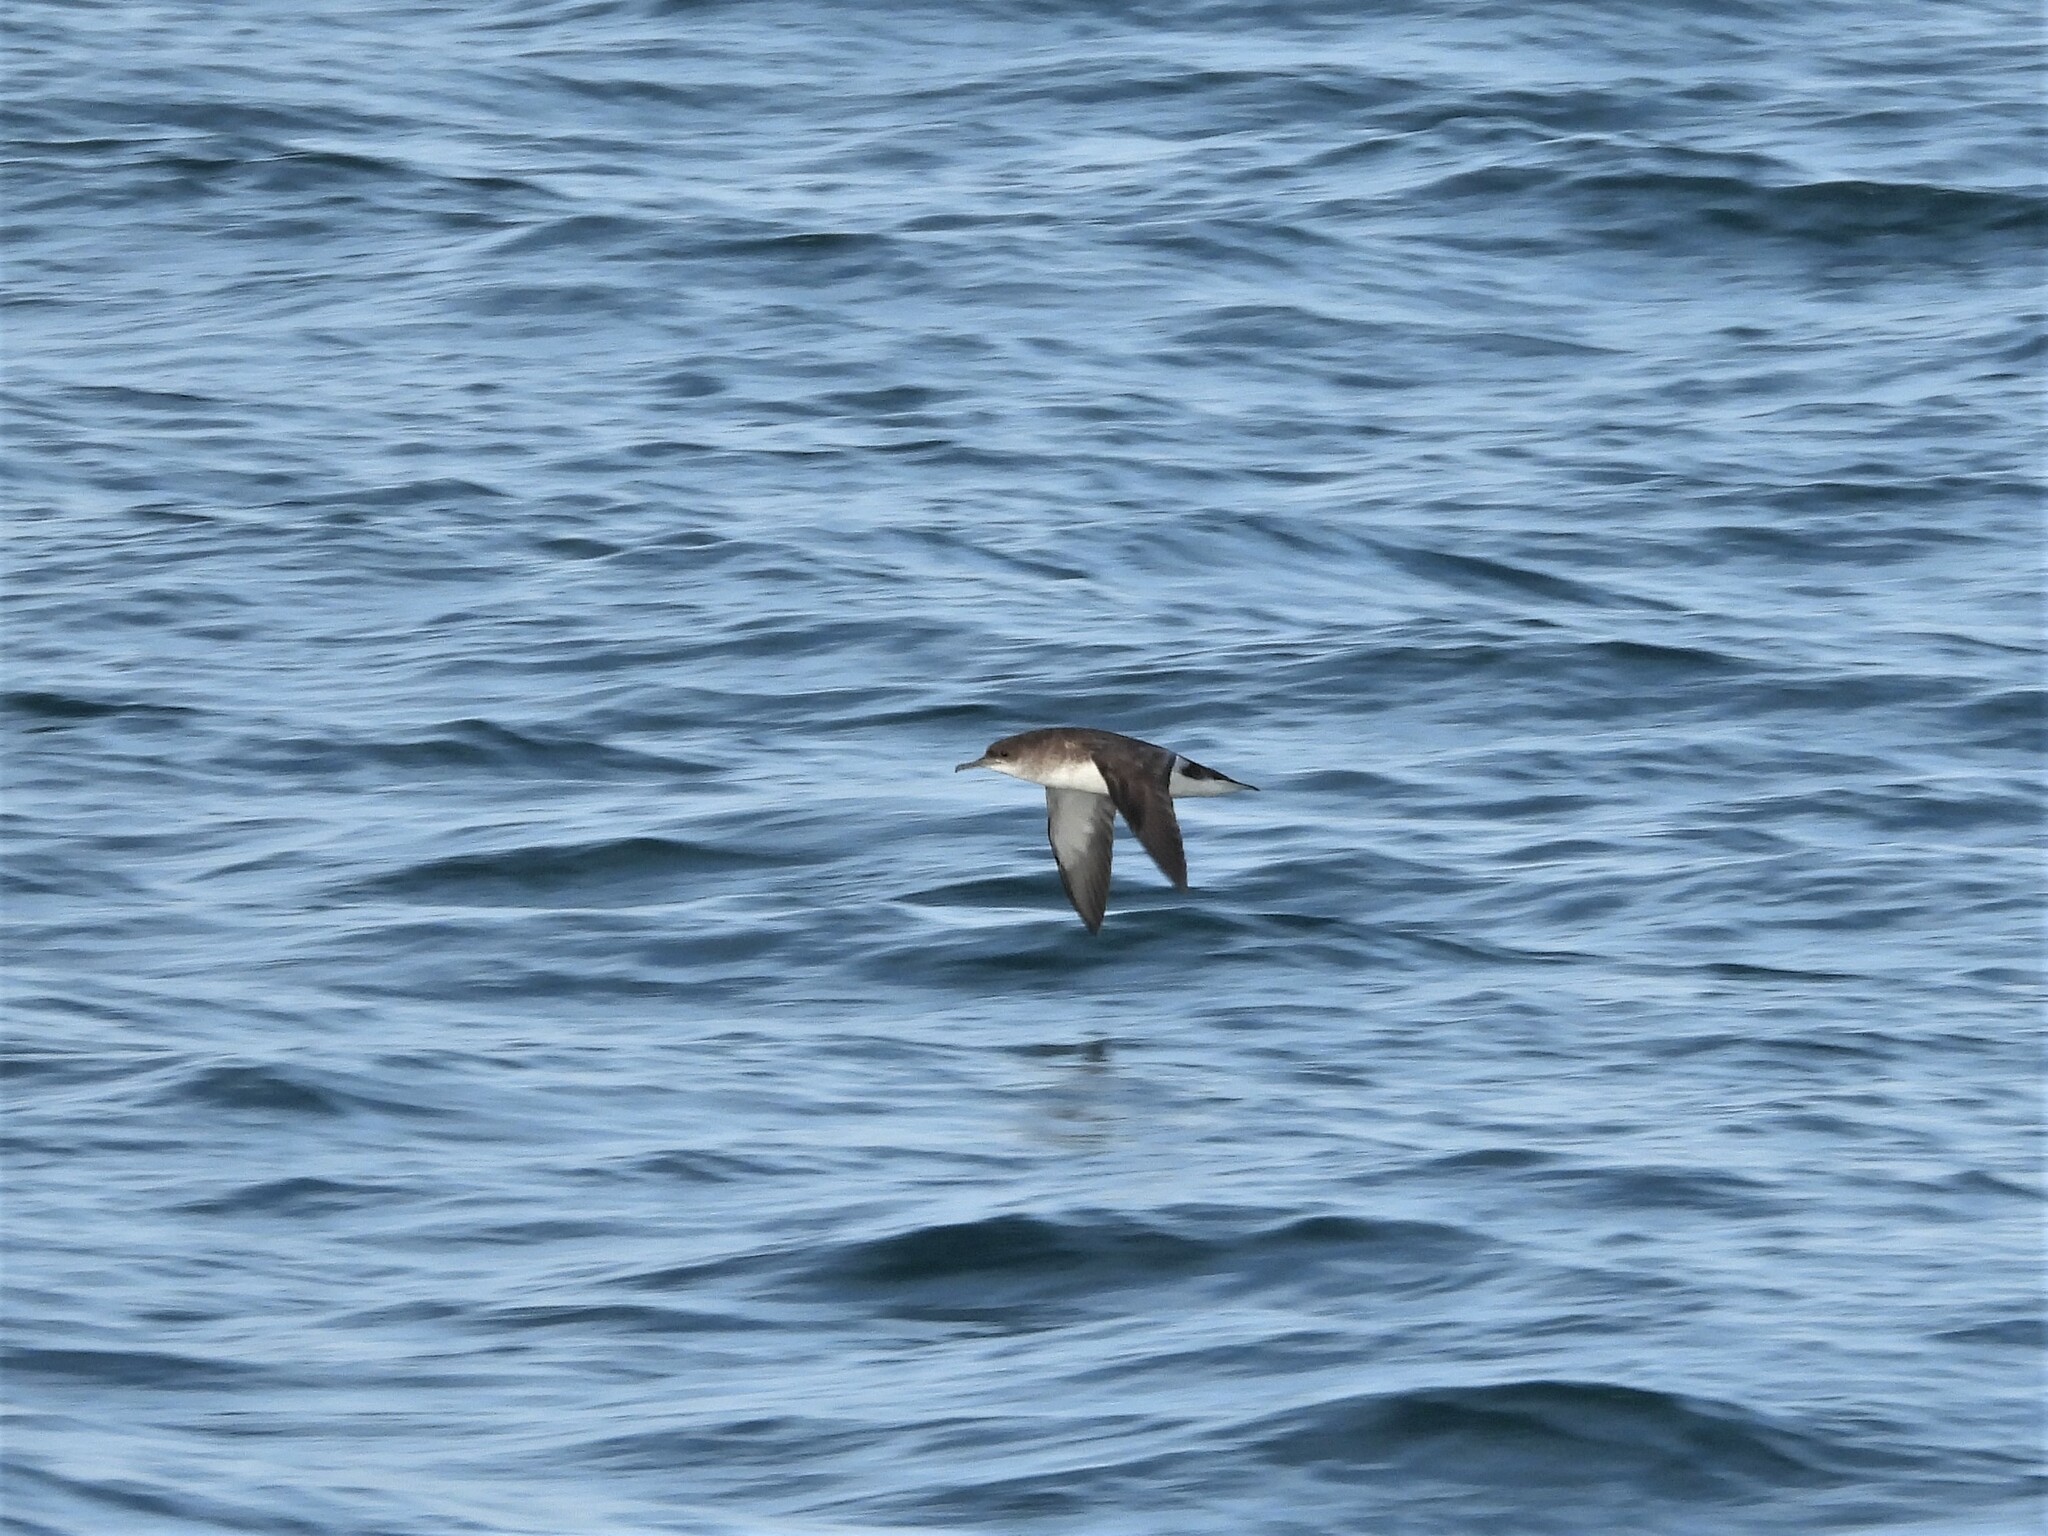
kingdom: Animalia
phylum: Chordata
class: Aves
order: Procellariiformes
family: Procellariidae
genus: Puffinus
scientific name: Puffinus gavia
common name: Fluttering shearwater
